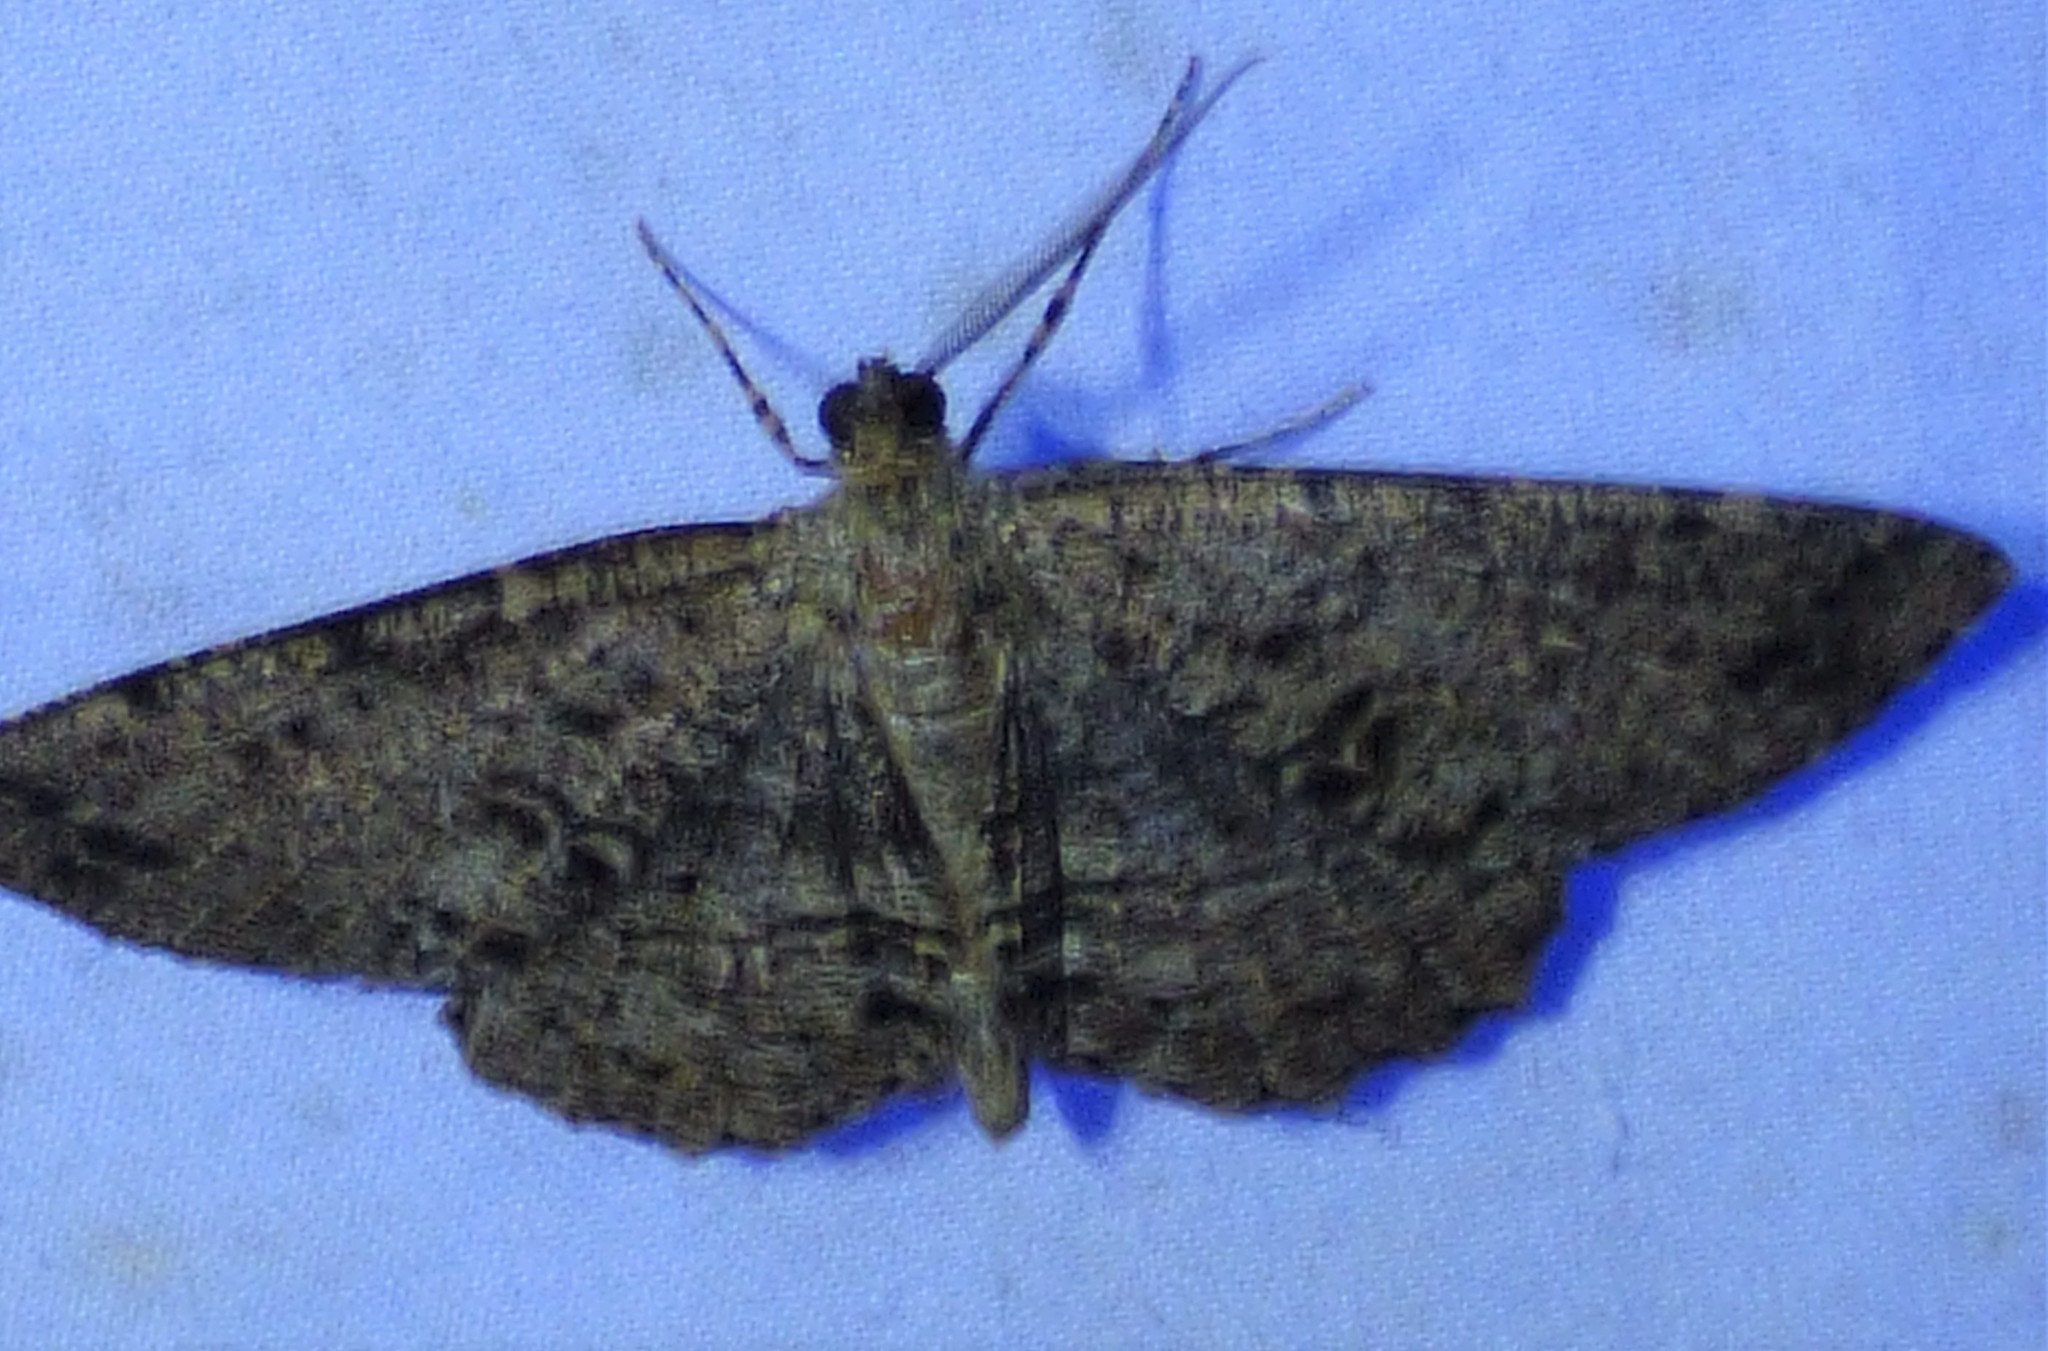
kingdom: Animalia
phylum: Arthropoda
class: Insecta
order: Lepidoptera
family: Geometridae
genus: Melanolophia
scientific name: Melanolophia canadaria
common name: Canadian melanolophia
